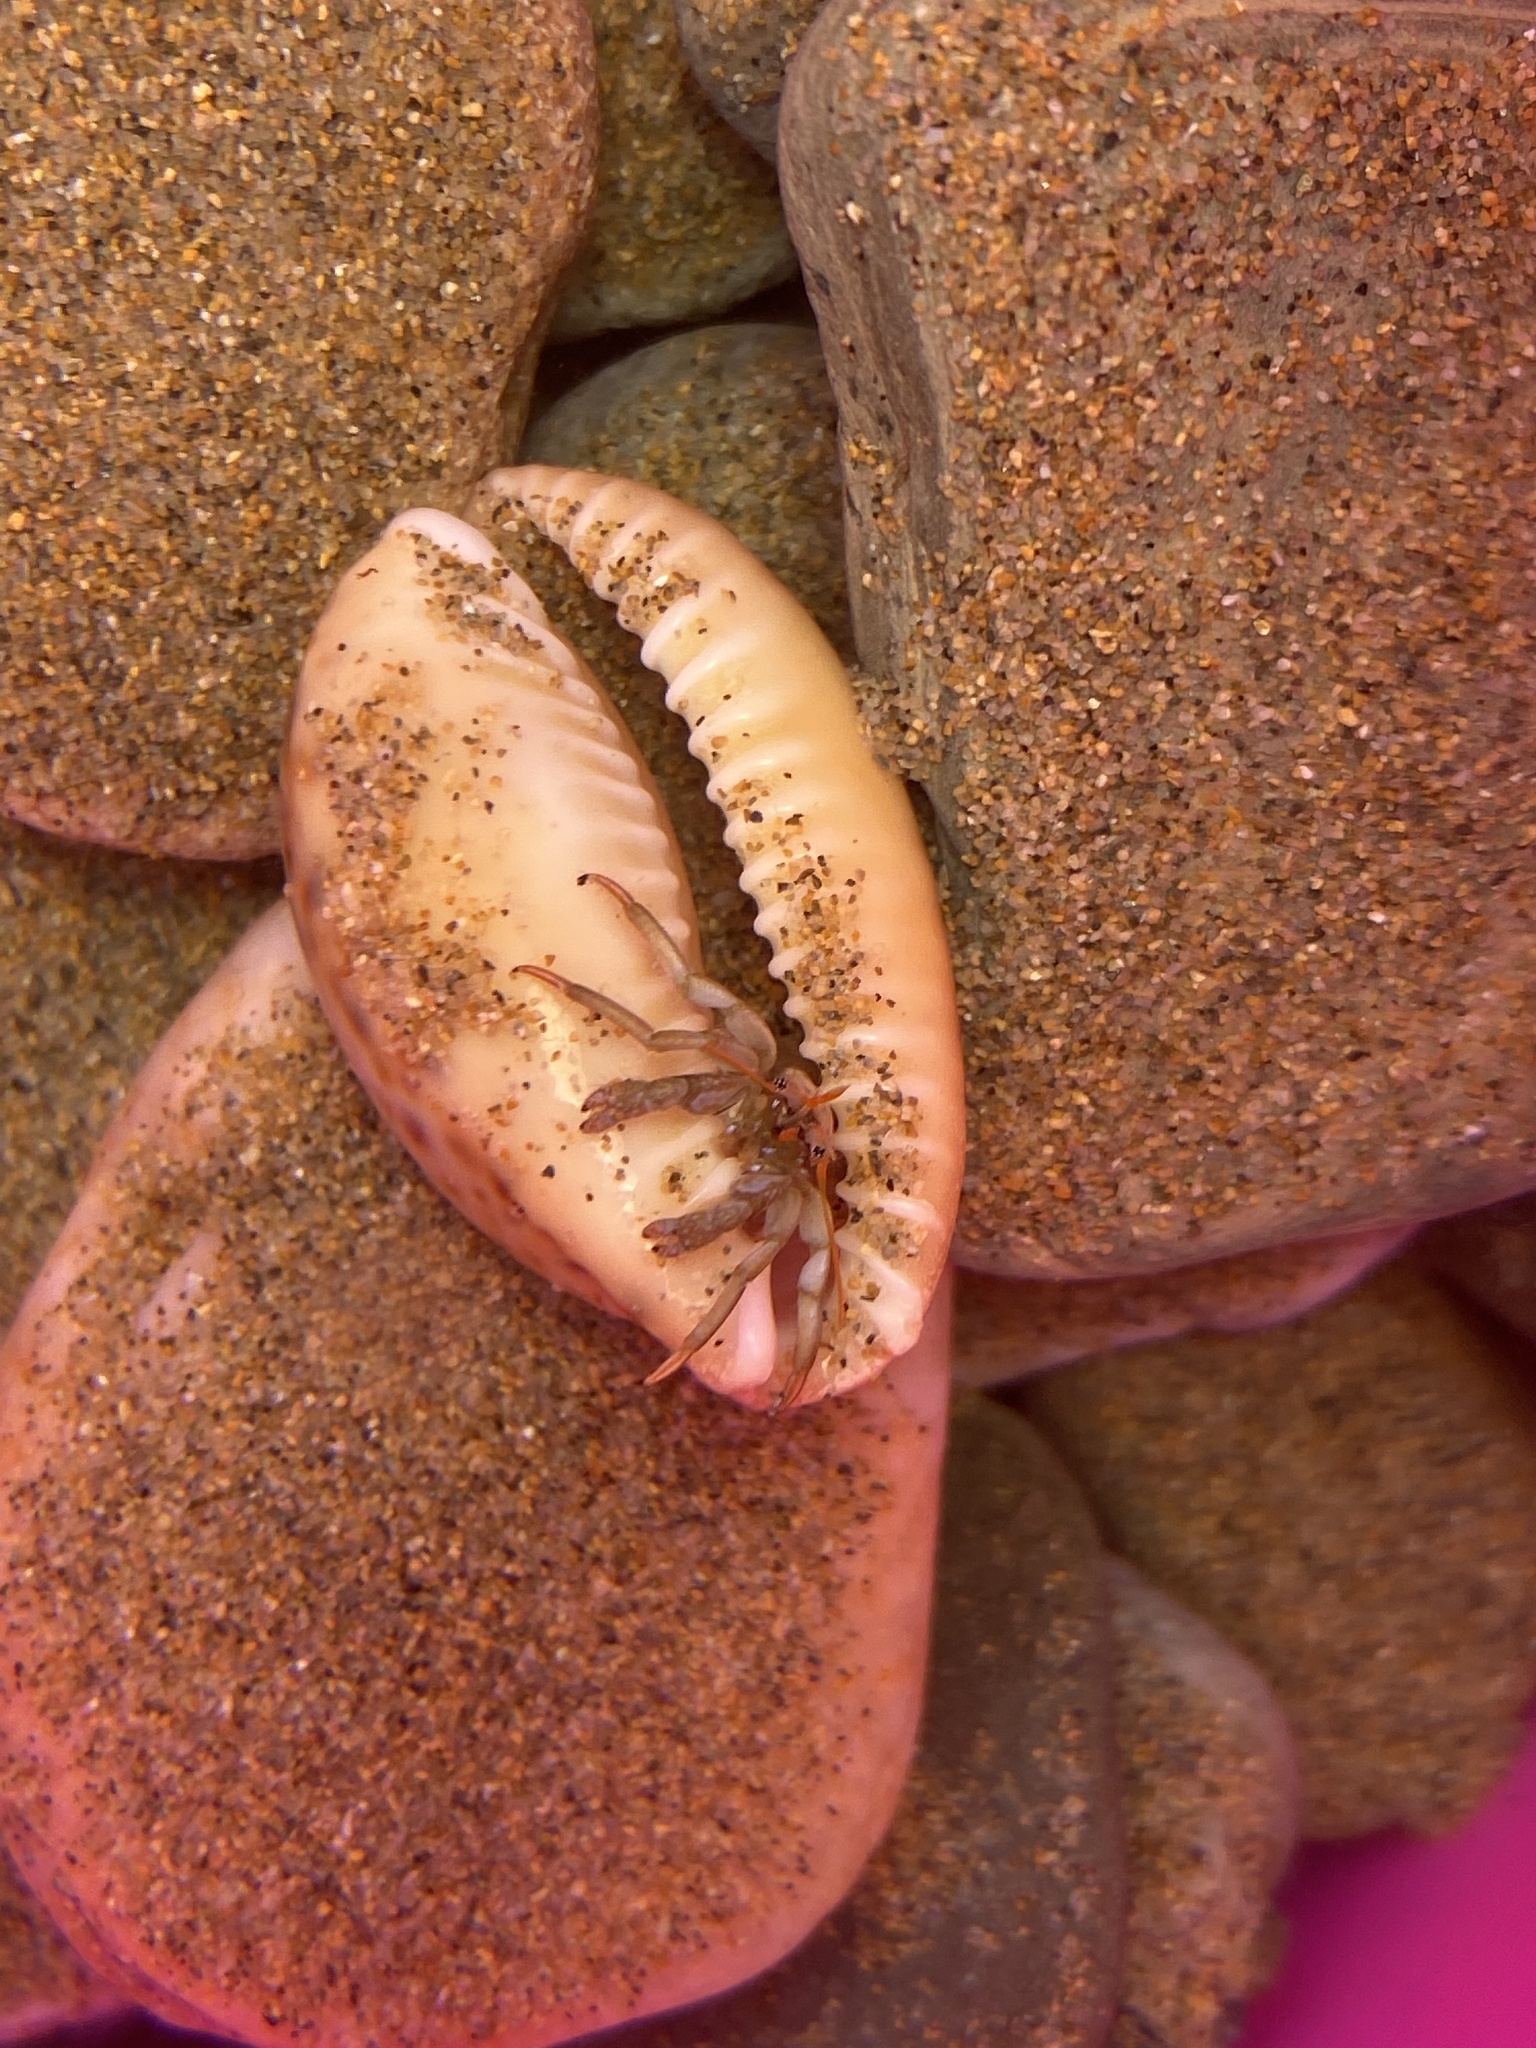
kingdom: Animalia
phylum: Arthropoda
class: Malacostraca
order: Decapoda
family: Diogenidae
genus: Clibanarius
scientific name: Clibanarius erythropus
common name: Hermit crab
